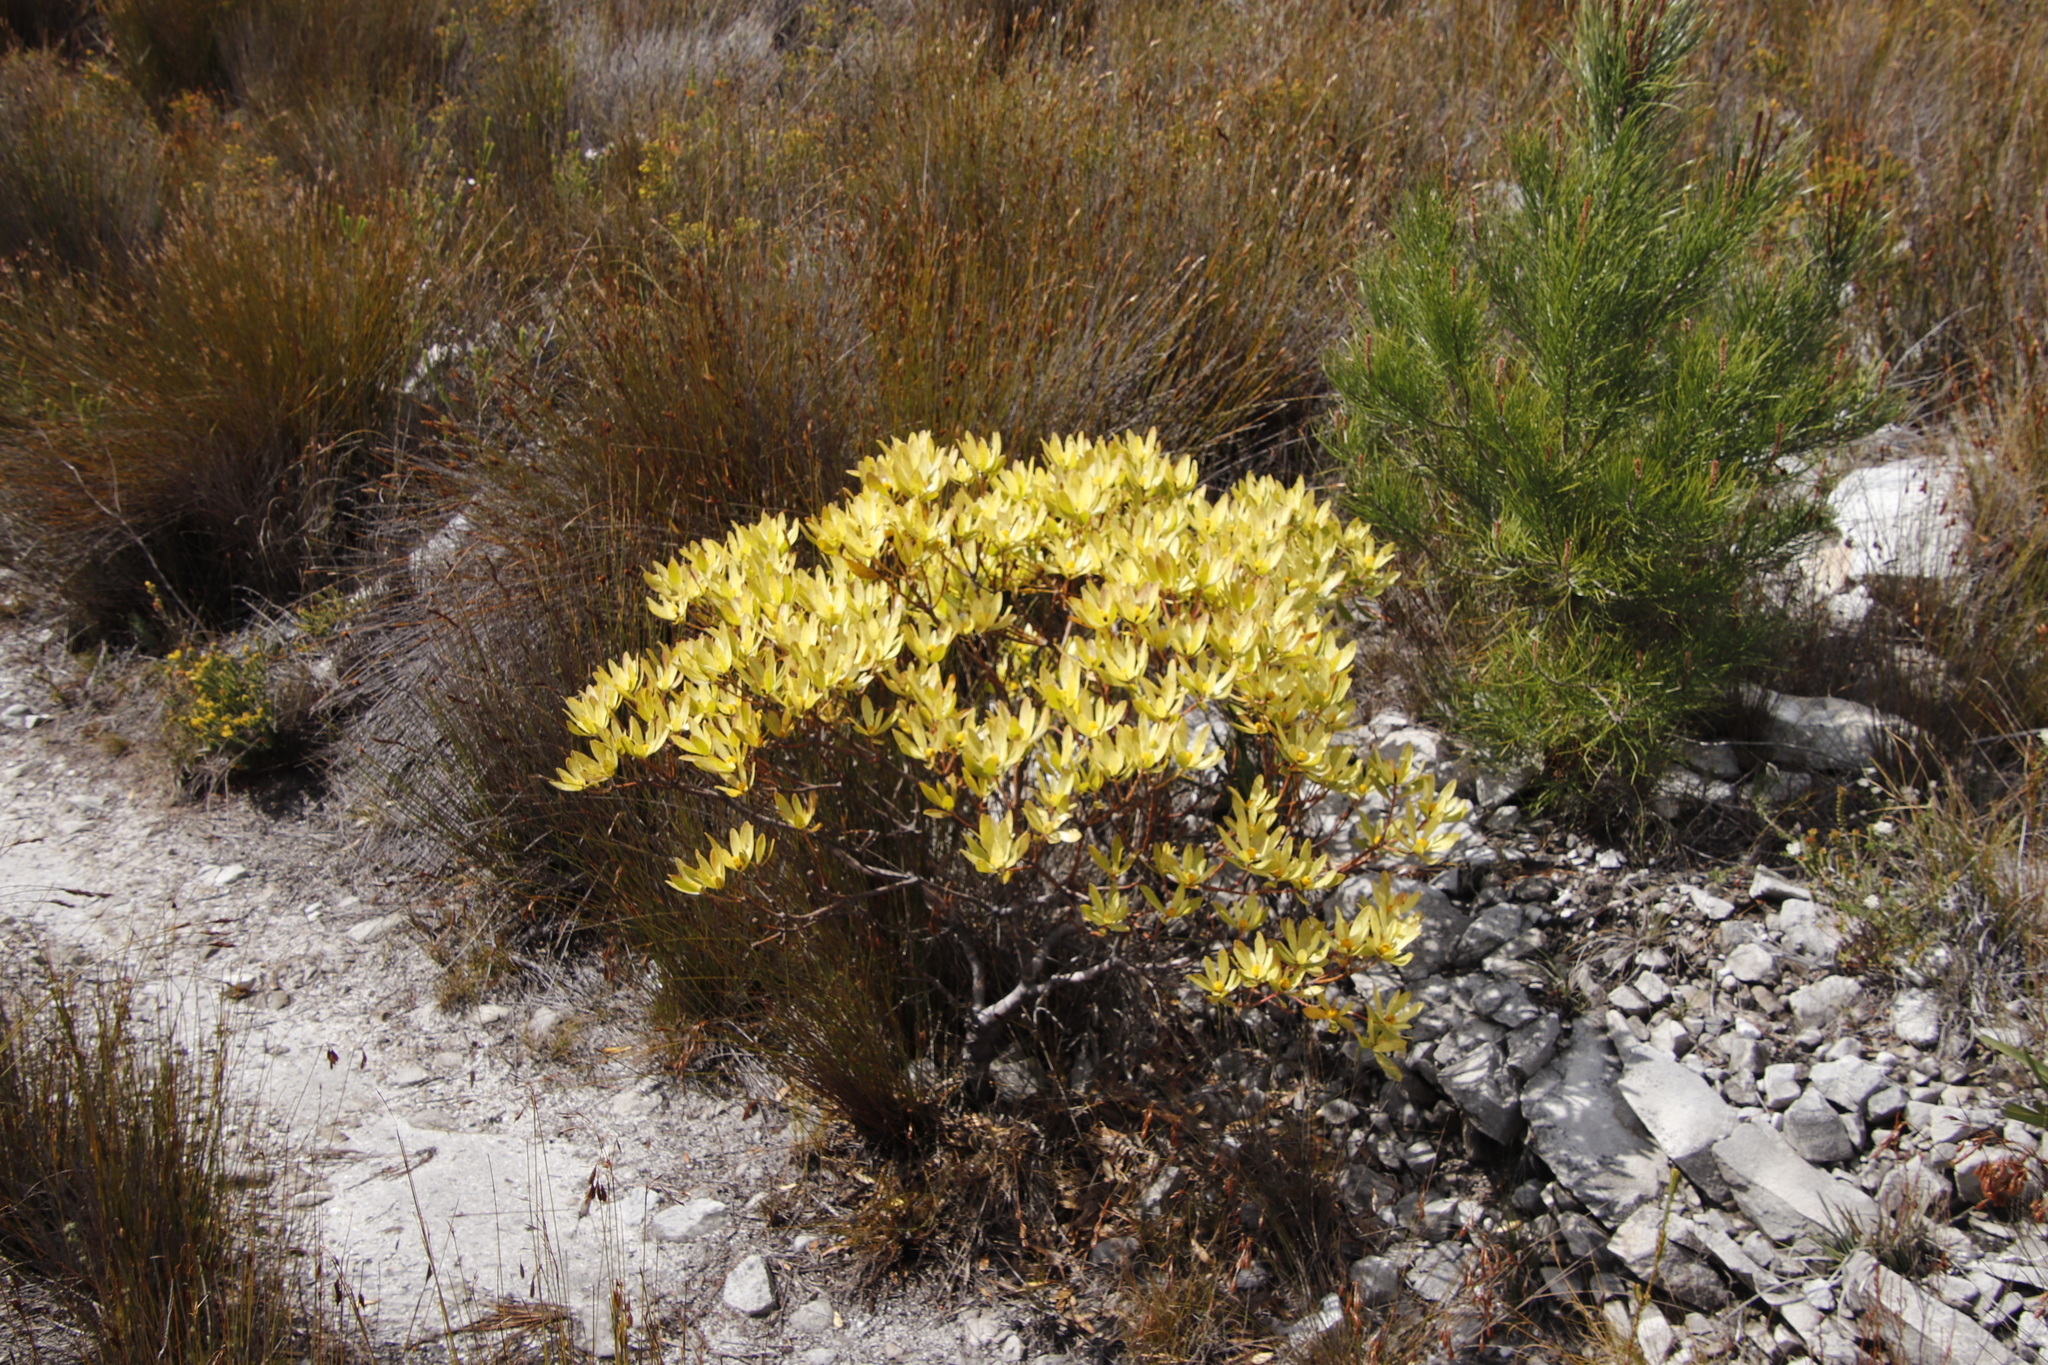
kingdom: Plantae
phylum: Tracheophyta
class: Magnoliopsida
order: Proteales
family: Proteaceae
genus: Leucadendron
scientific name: Leucadendron gandogeri
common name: Broad-leaf conebush
